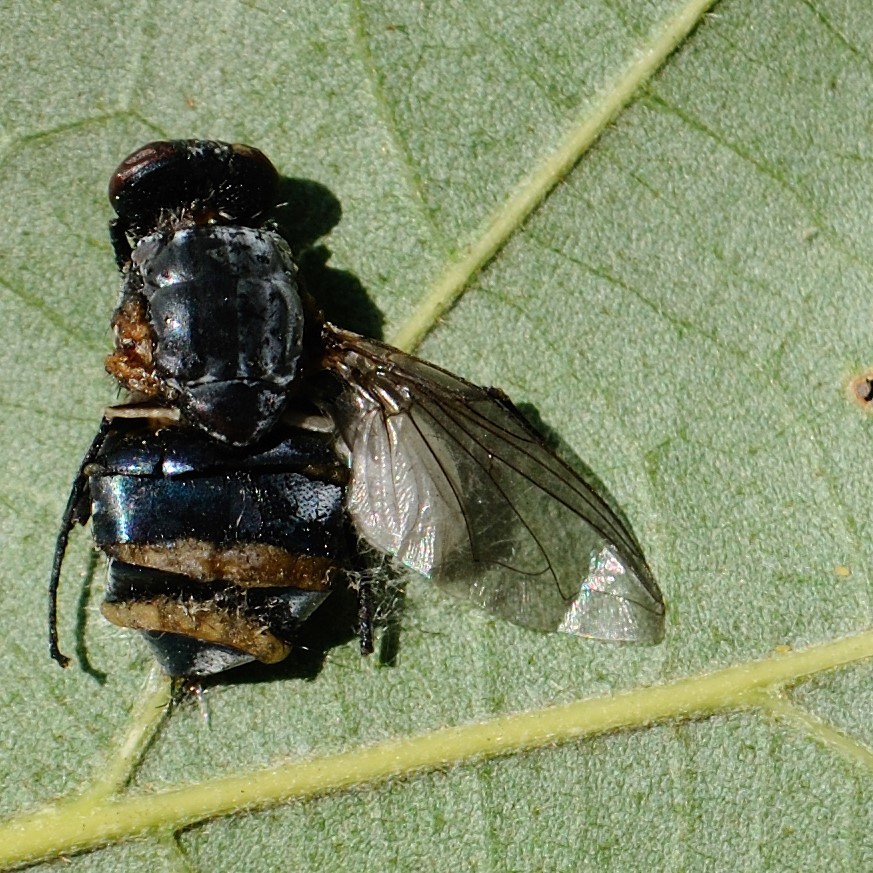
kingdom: Fungi
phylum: Entomophthoromycota
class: Entomophthoromycetes
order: Entomophthorales
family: Entomophthoraceae
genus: Entomophthora
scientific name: Entomophthora
